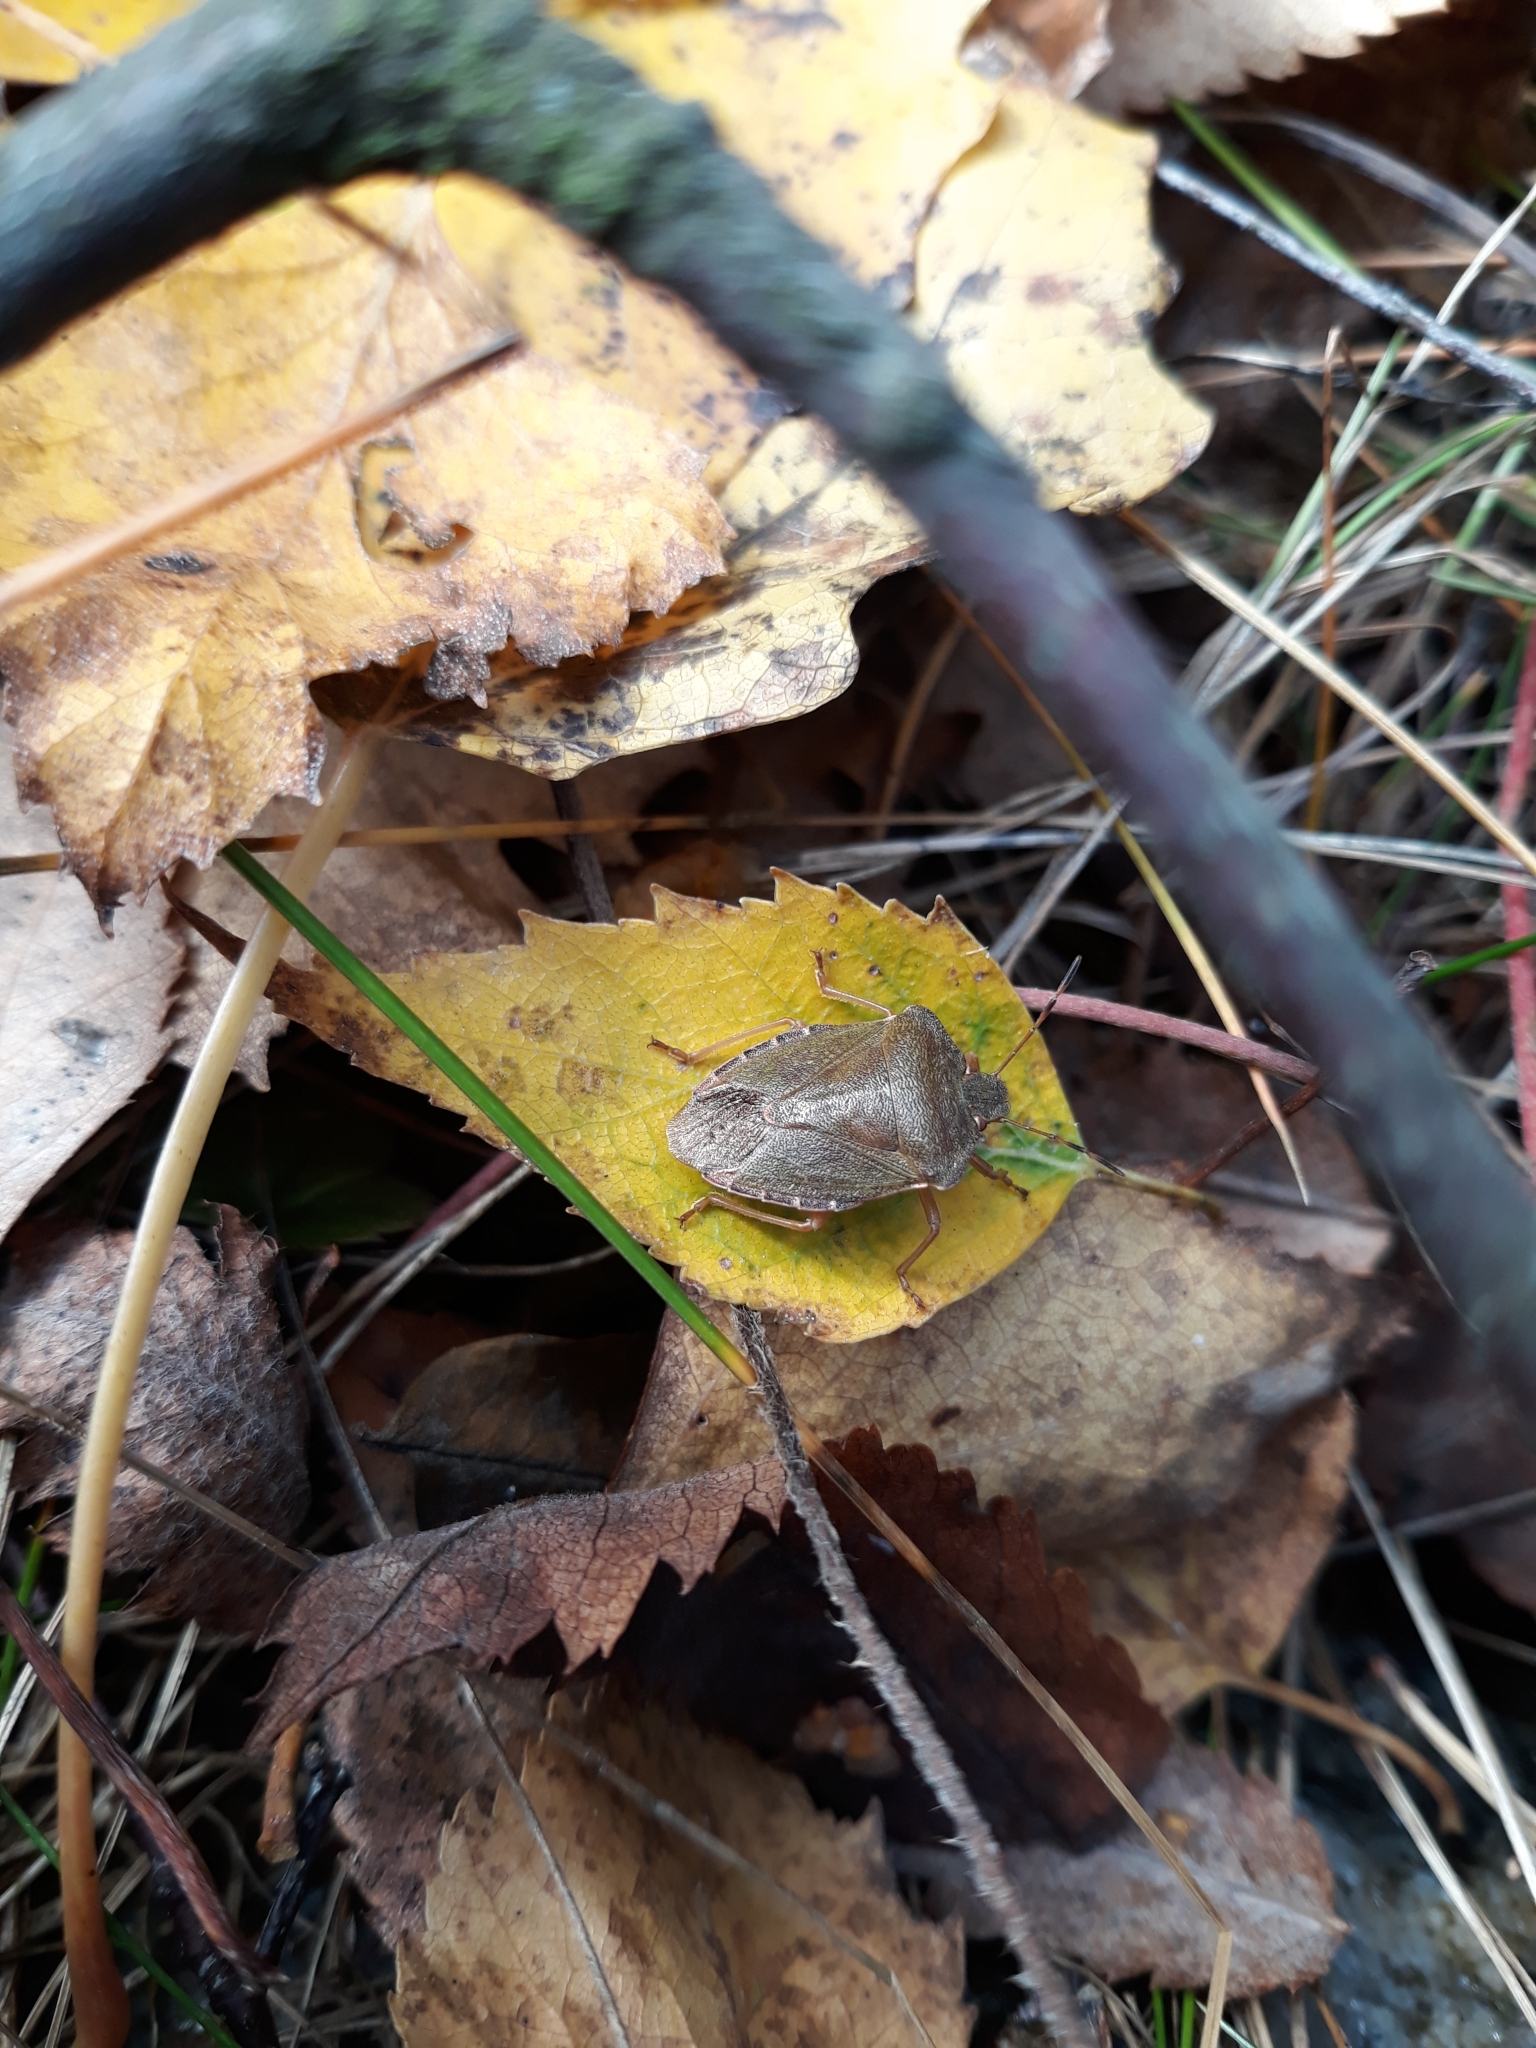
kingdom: Animalia
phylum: Arthropoda
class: Insecta
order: Hemiptera
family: Pentatomidae
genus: Palomena
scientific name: Palomena prasina
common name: Green shieldbug
